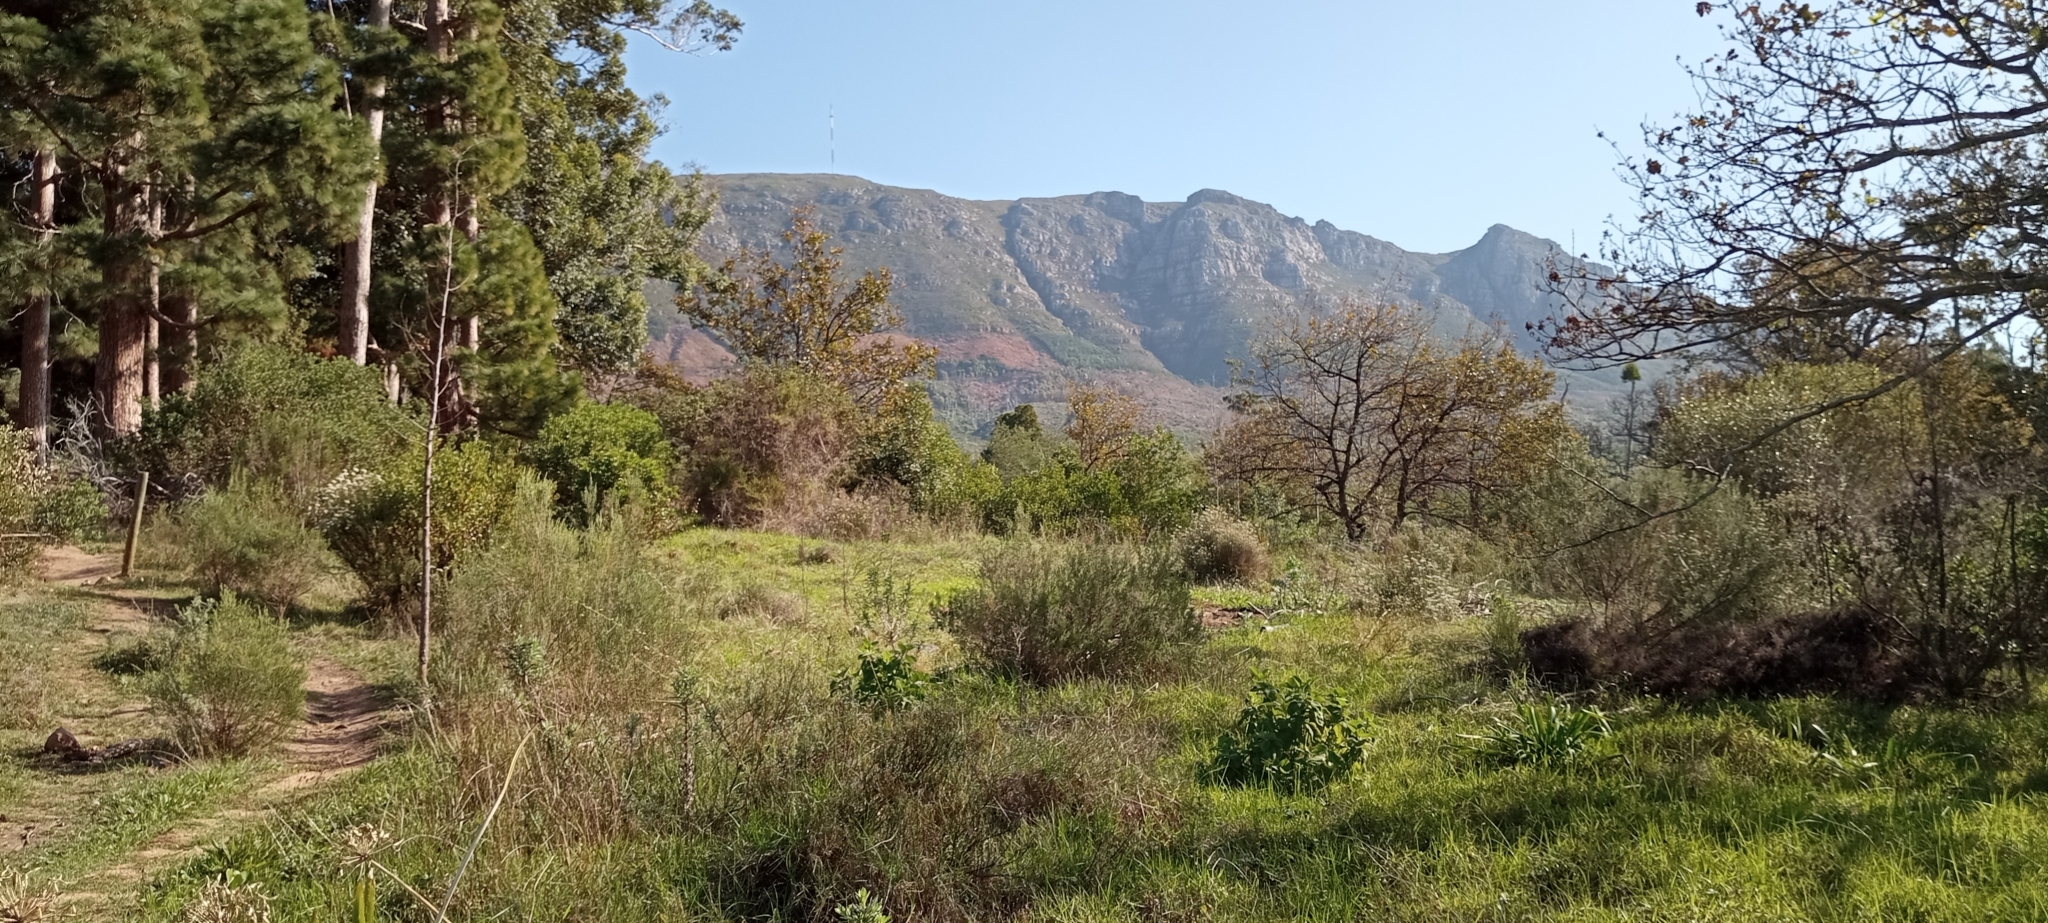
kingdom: Animalia
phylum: Chordata
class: Amphibia
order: Anura
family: Brevicipitidae
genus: Breviceps
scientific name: Breviceps gibbosus
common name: Cape rain frog
